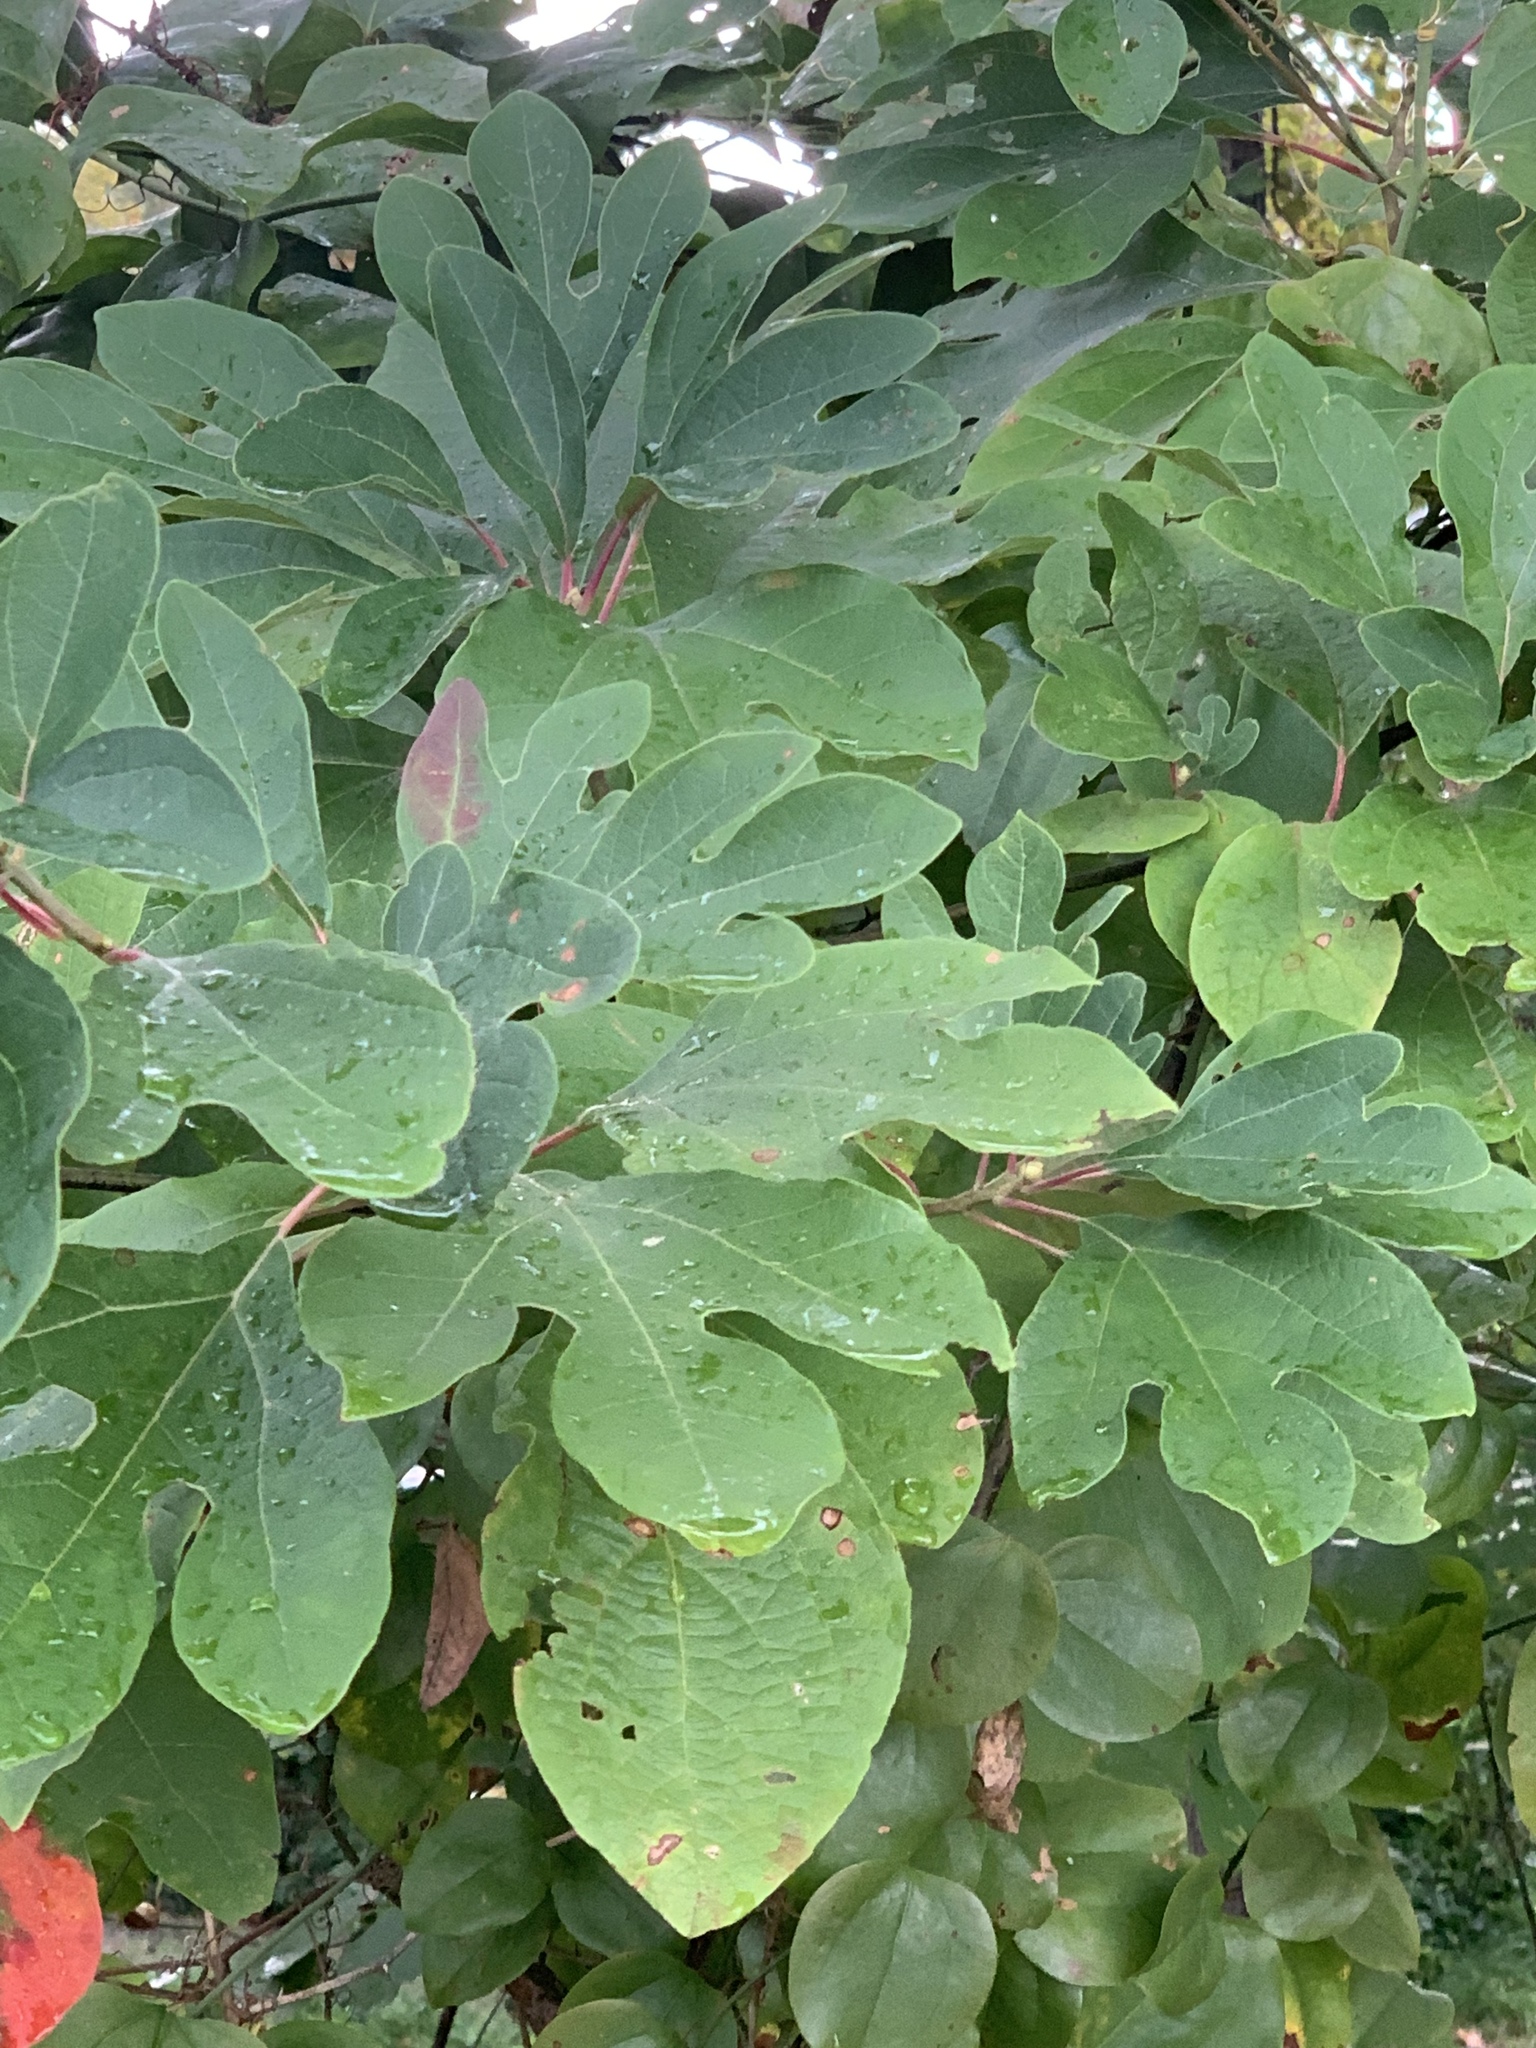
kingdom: Plantae
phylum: Tracheophyta
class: Magnoliopsida
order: Laurales
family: Lauraceae
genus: Sassafras
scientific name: Sassafras albidum
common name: Sassafras
